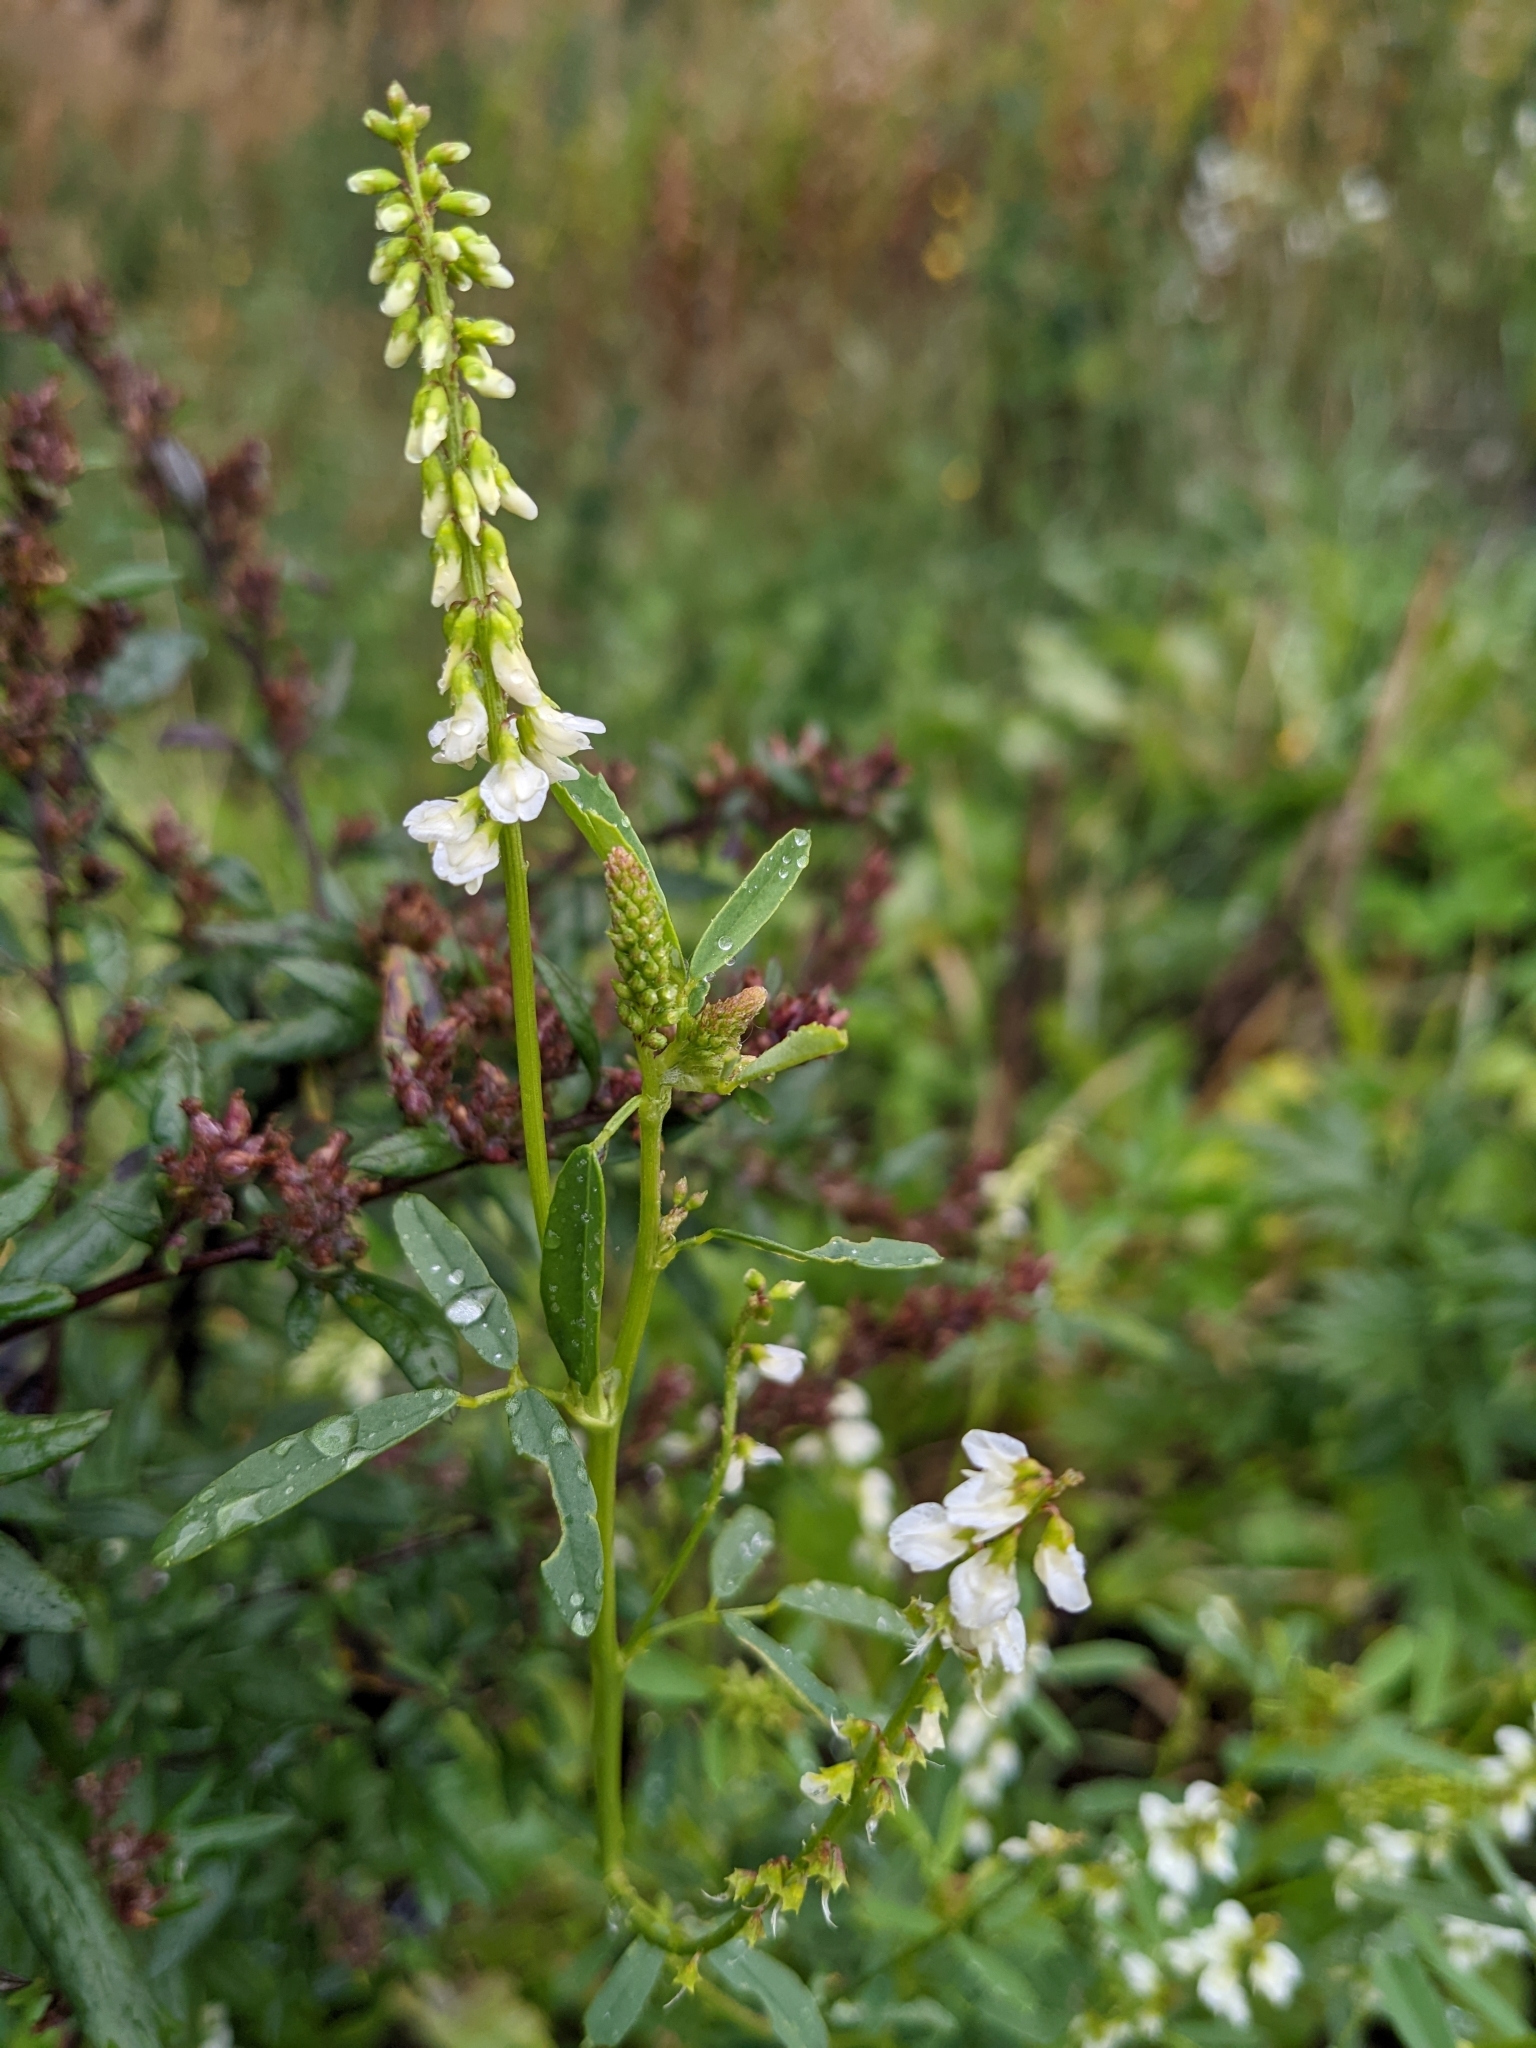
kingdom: Plantae
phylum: Tracheophyta
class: Magnoliopsida
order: Fabales
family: Fabaceae
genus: Melilotus
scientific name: Melilotus albus
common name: White melilot
